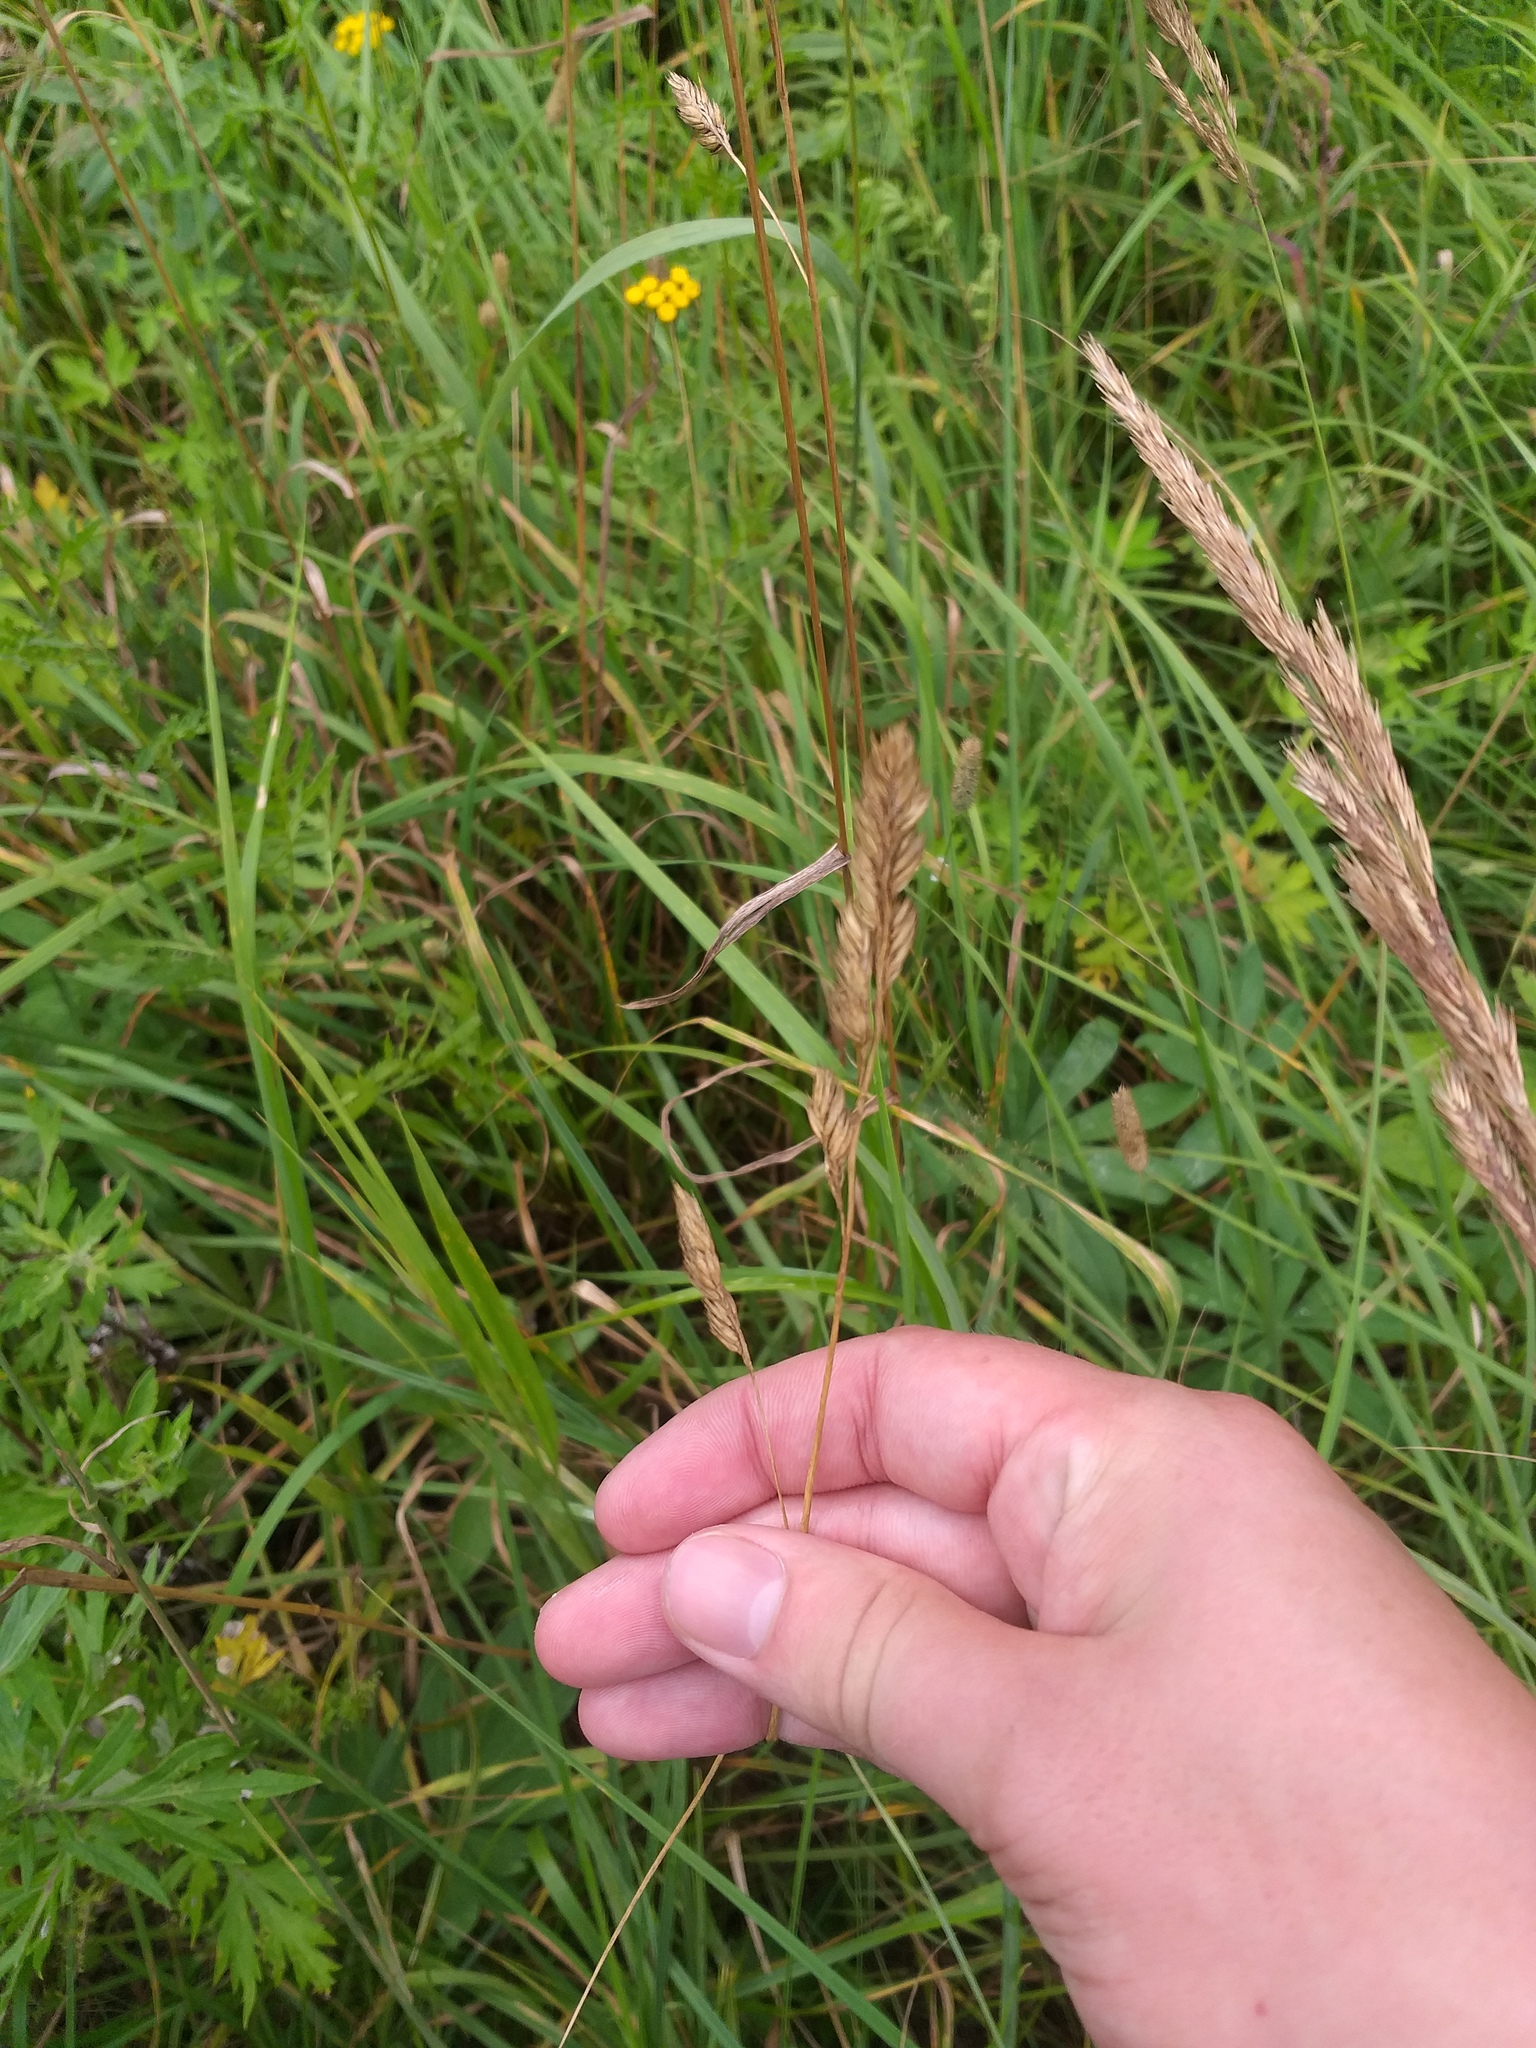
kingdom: Plantae
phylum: Tracheophyta
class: Liliopsida
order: Poales
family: Poaceae
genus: Dactylis
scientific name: Dactylis glomerata
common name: Orchardgrass
